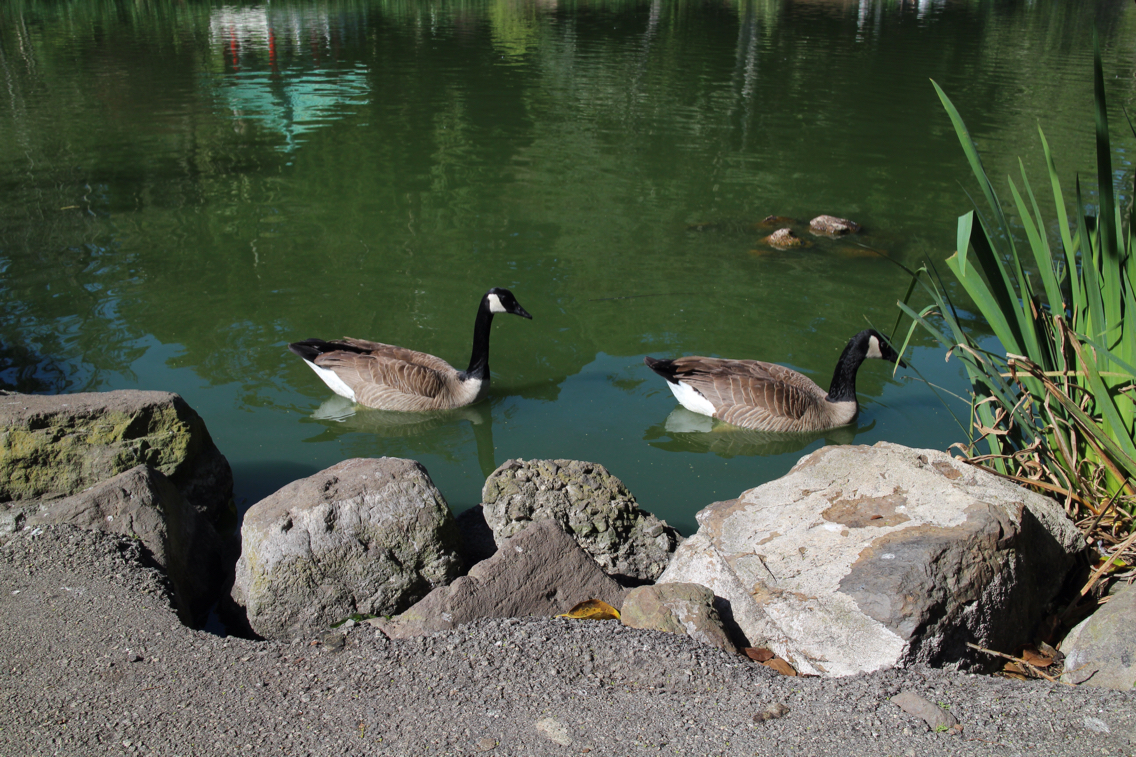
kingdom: Animalia
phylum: Chordata
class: Aves
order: Anseriformes
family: Anatidae
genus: Branta
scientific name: Branta canadensis
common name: Canada goose
